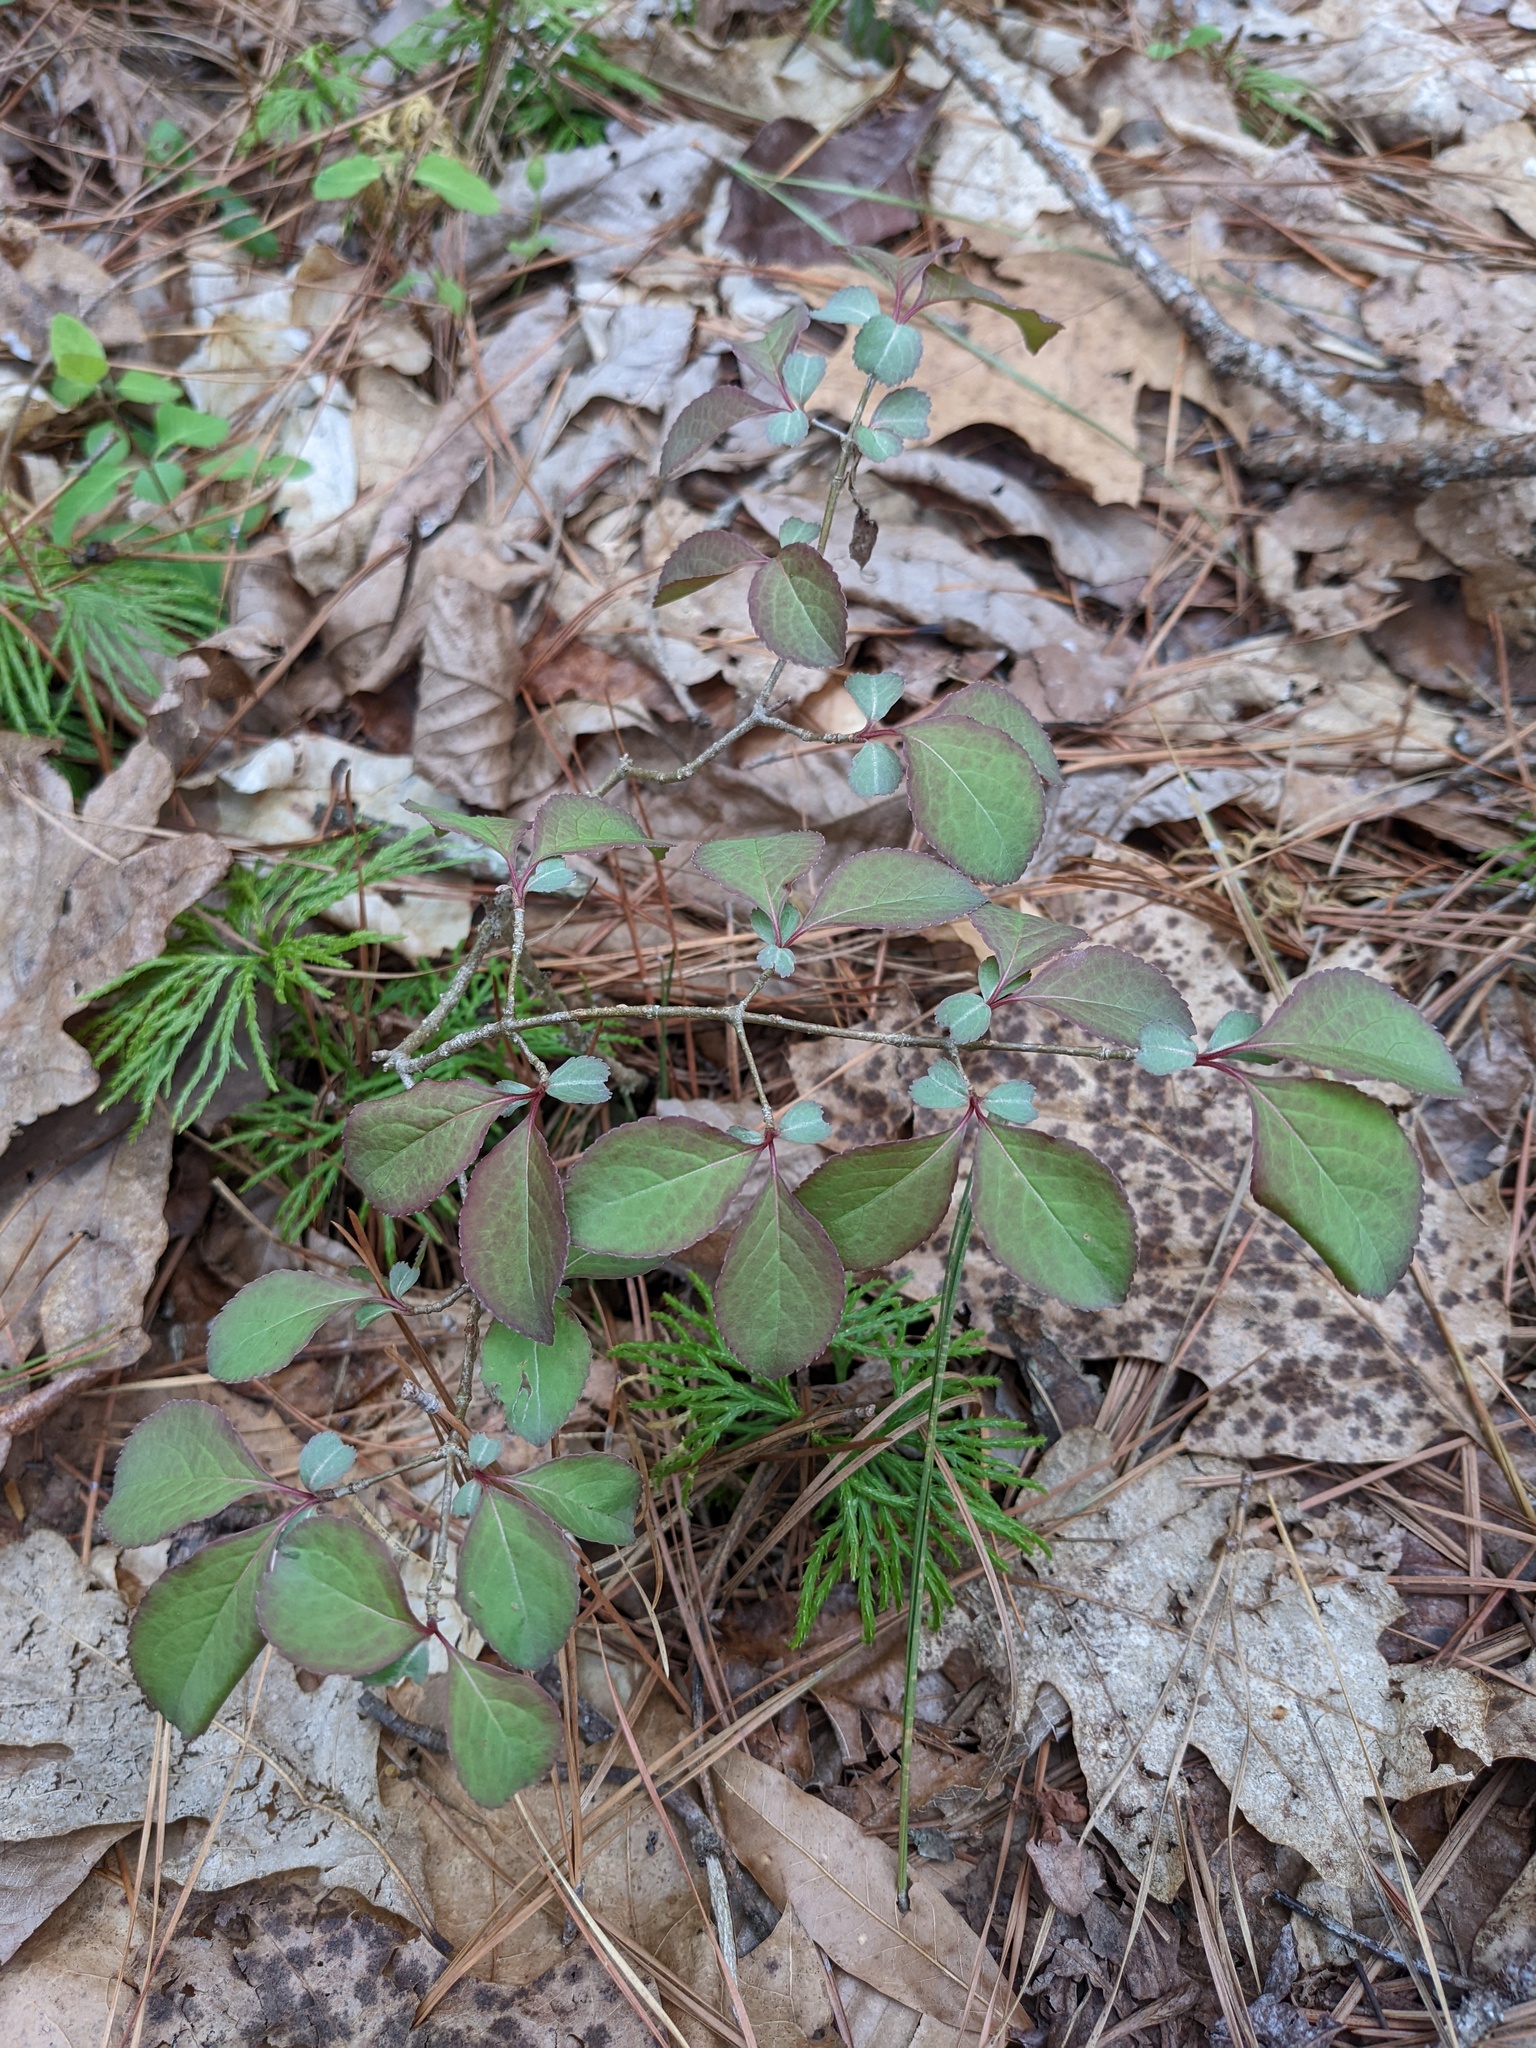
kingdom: Plantae
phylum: Tracheophyta
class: Magnoliopsida
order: Dipsacales
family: Viburnaceae
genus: Viburnum
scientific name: Viburnum prunifolium
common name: Black haw
